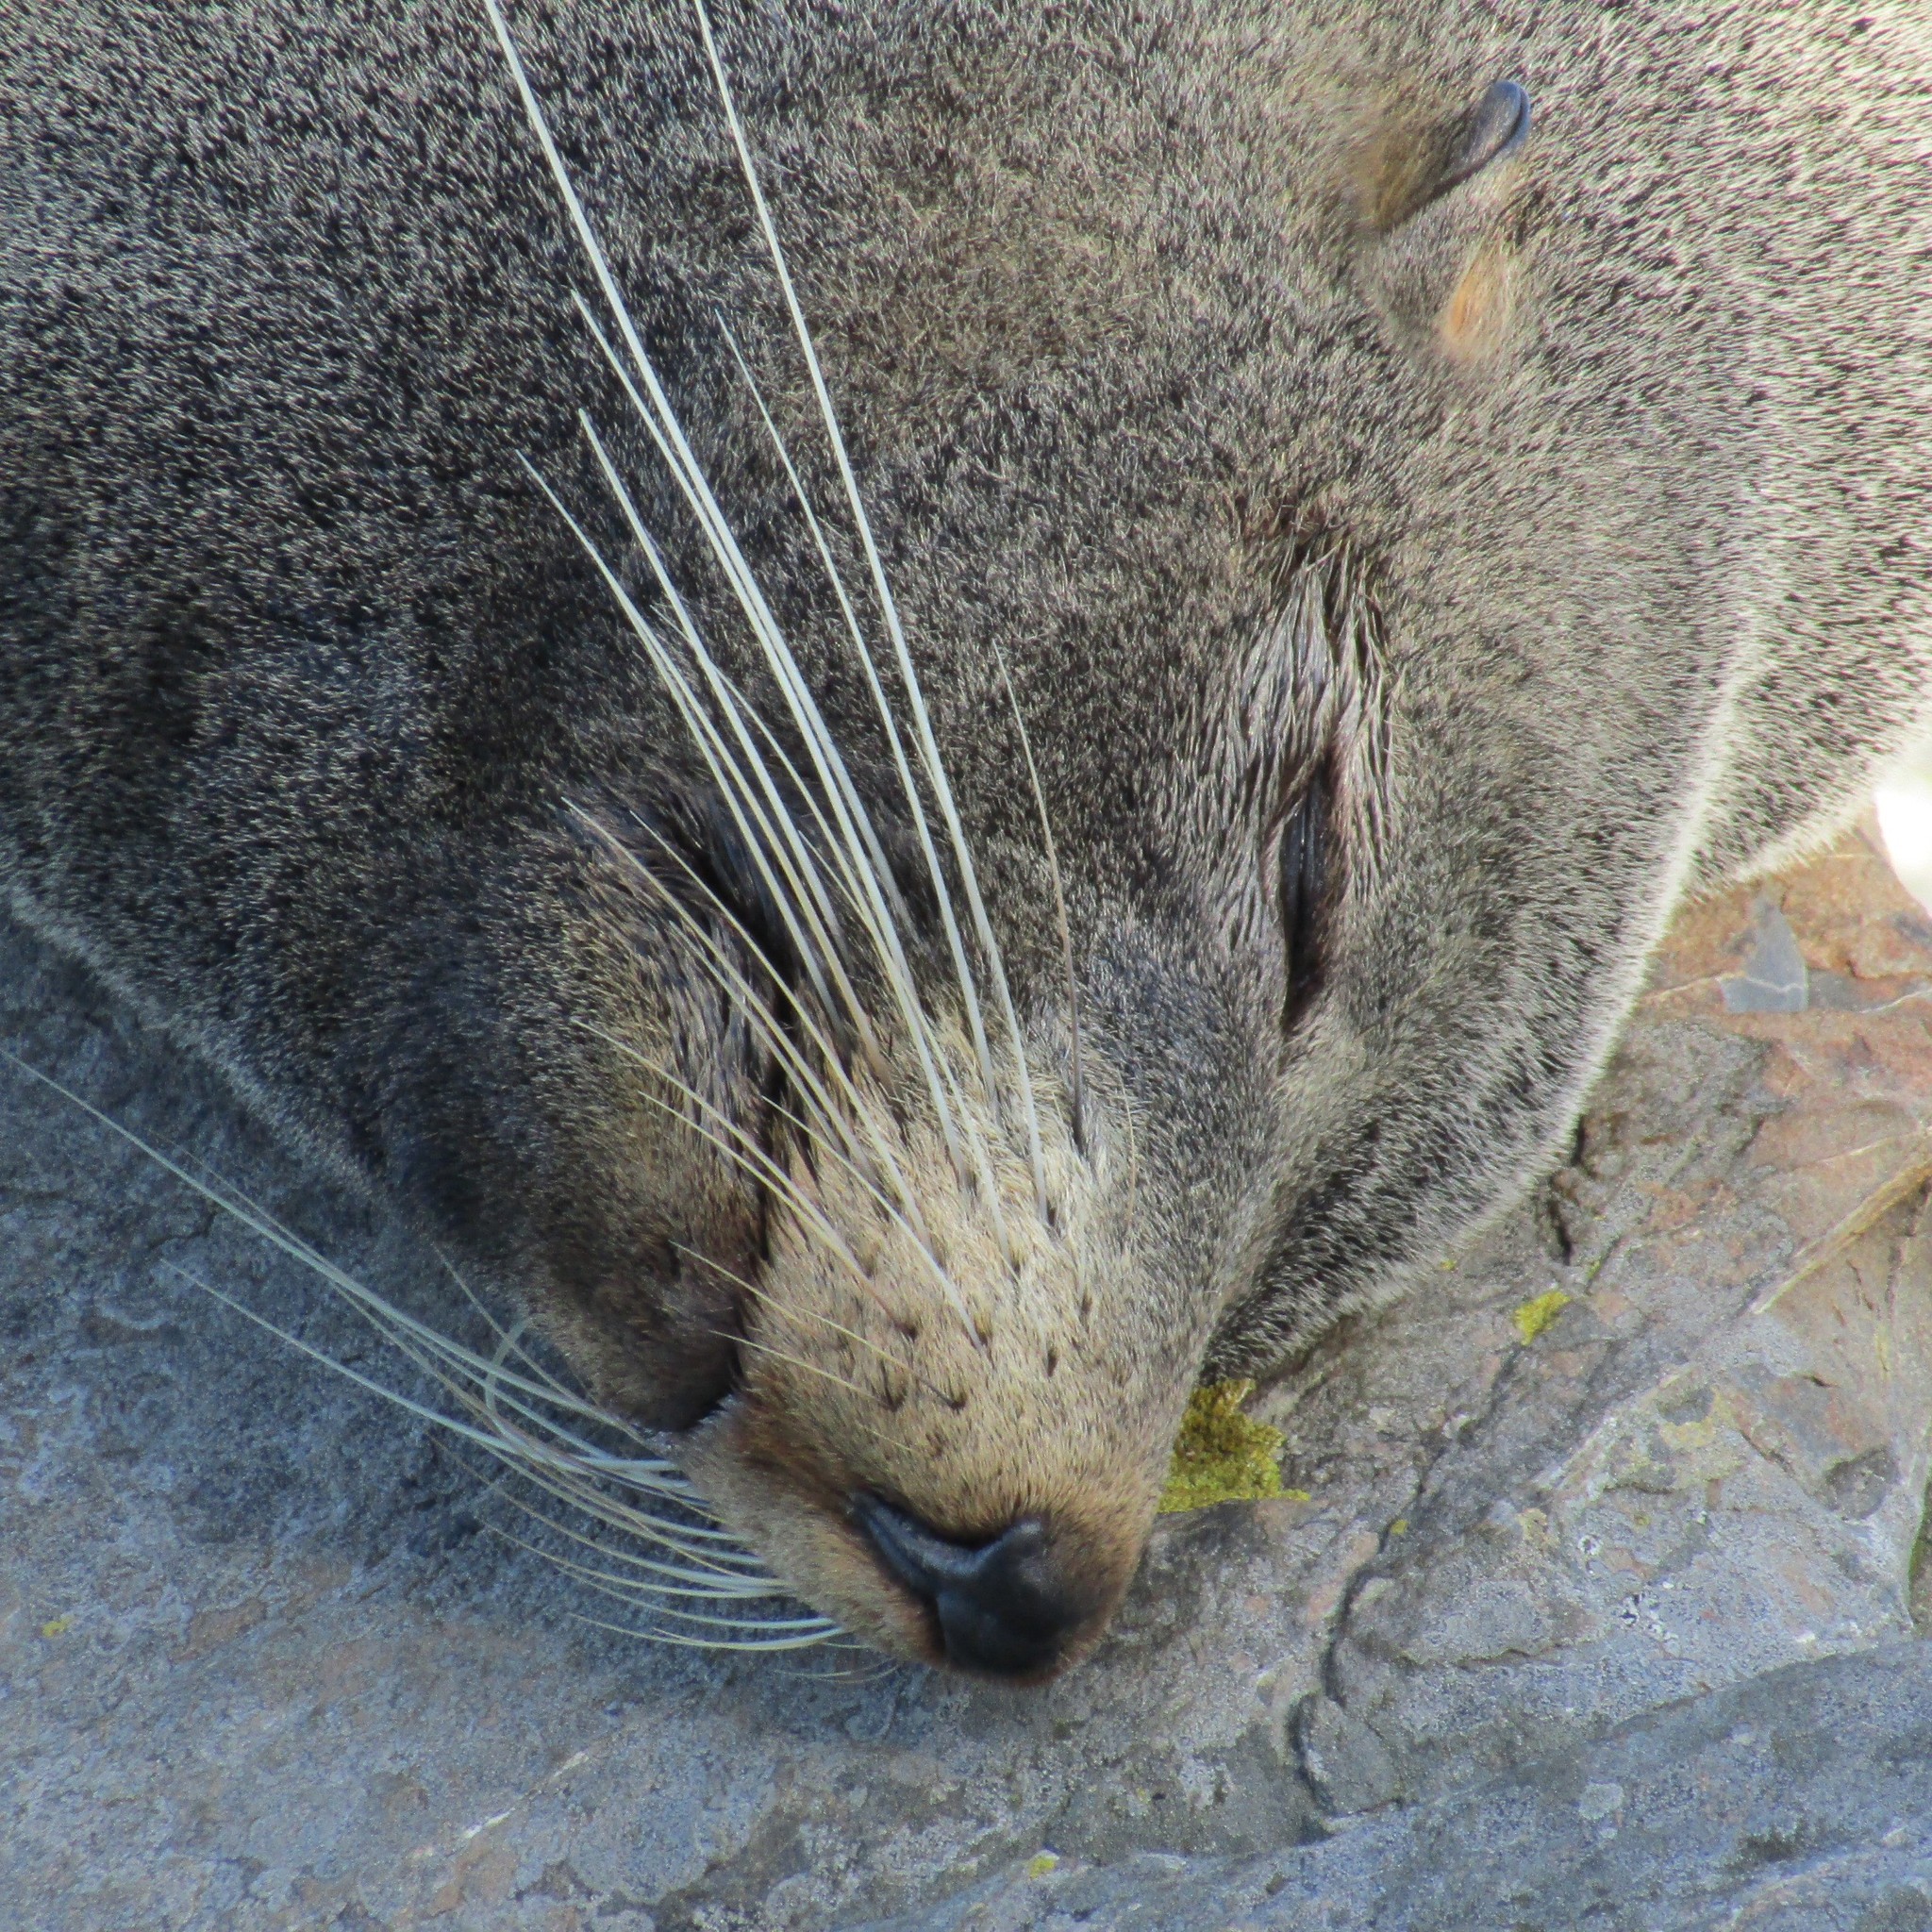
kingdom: Animalia
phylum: Chordata
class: Mammalia
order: Carnivora
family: Otariidae
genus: Arctocephalus
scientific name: Arctocephalus forsteri
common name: New zealand fur seal
